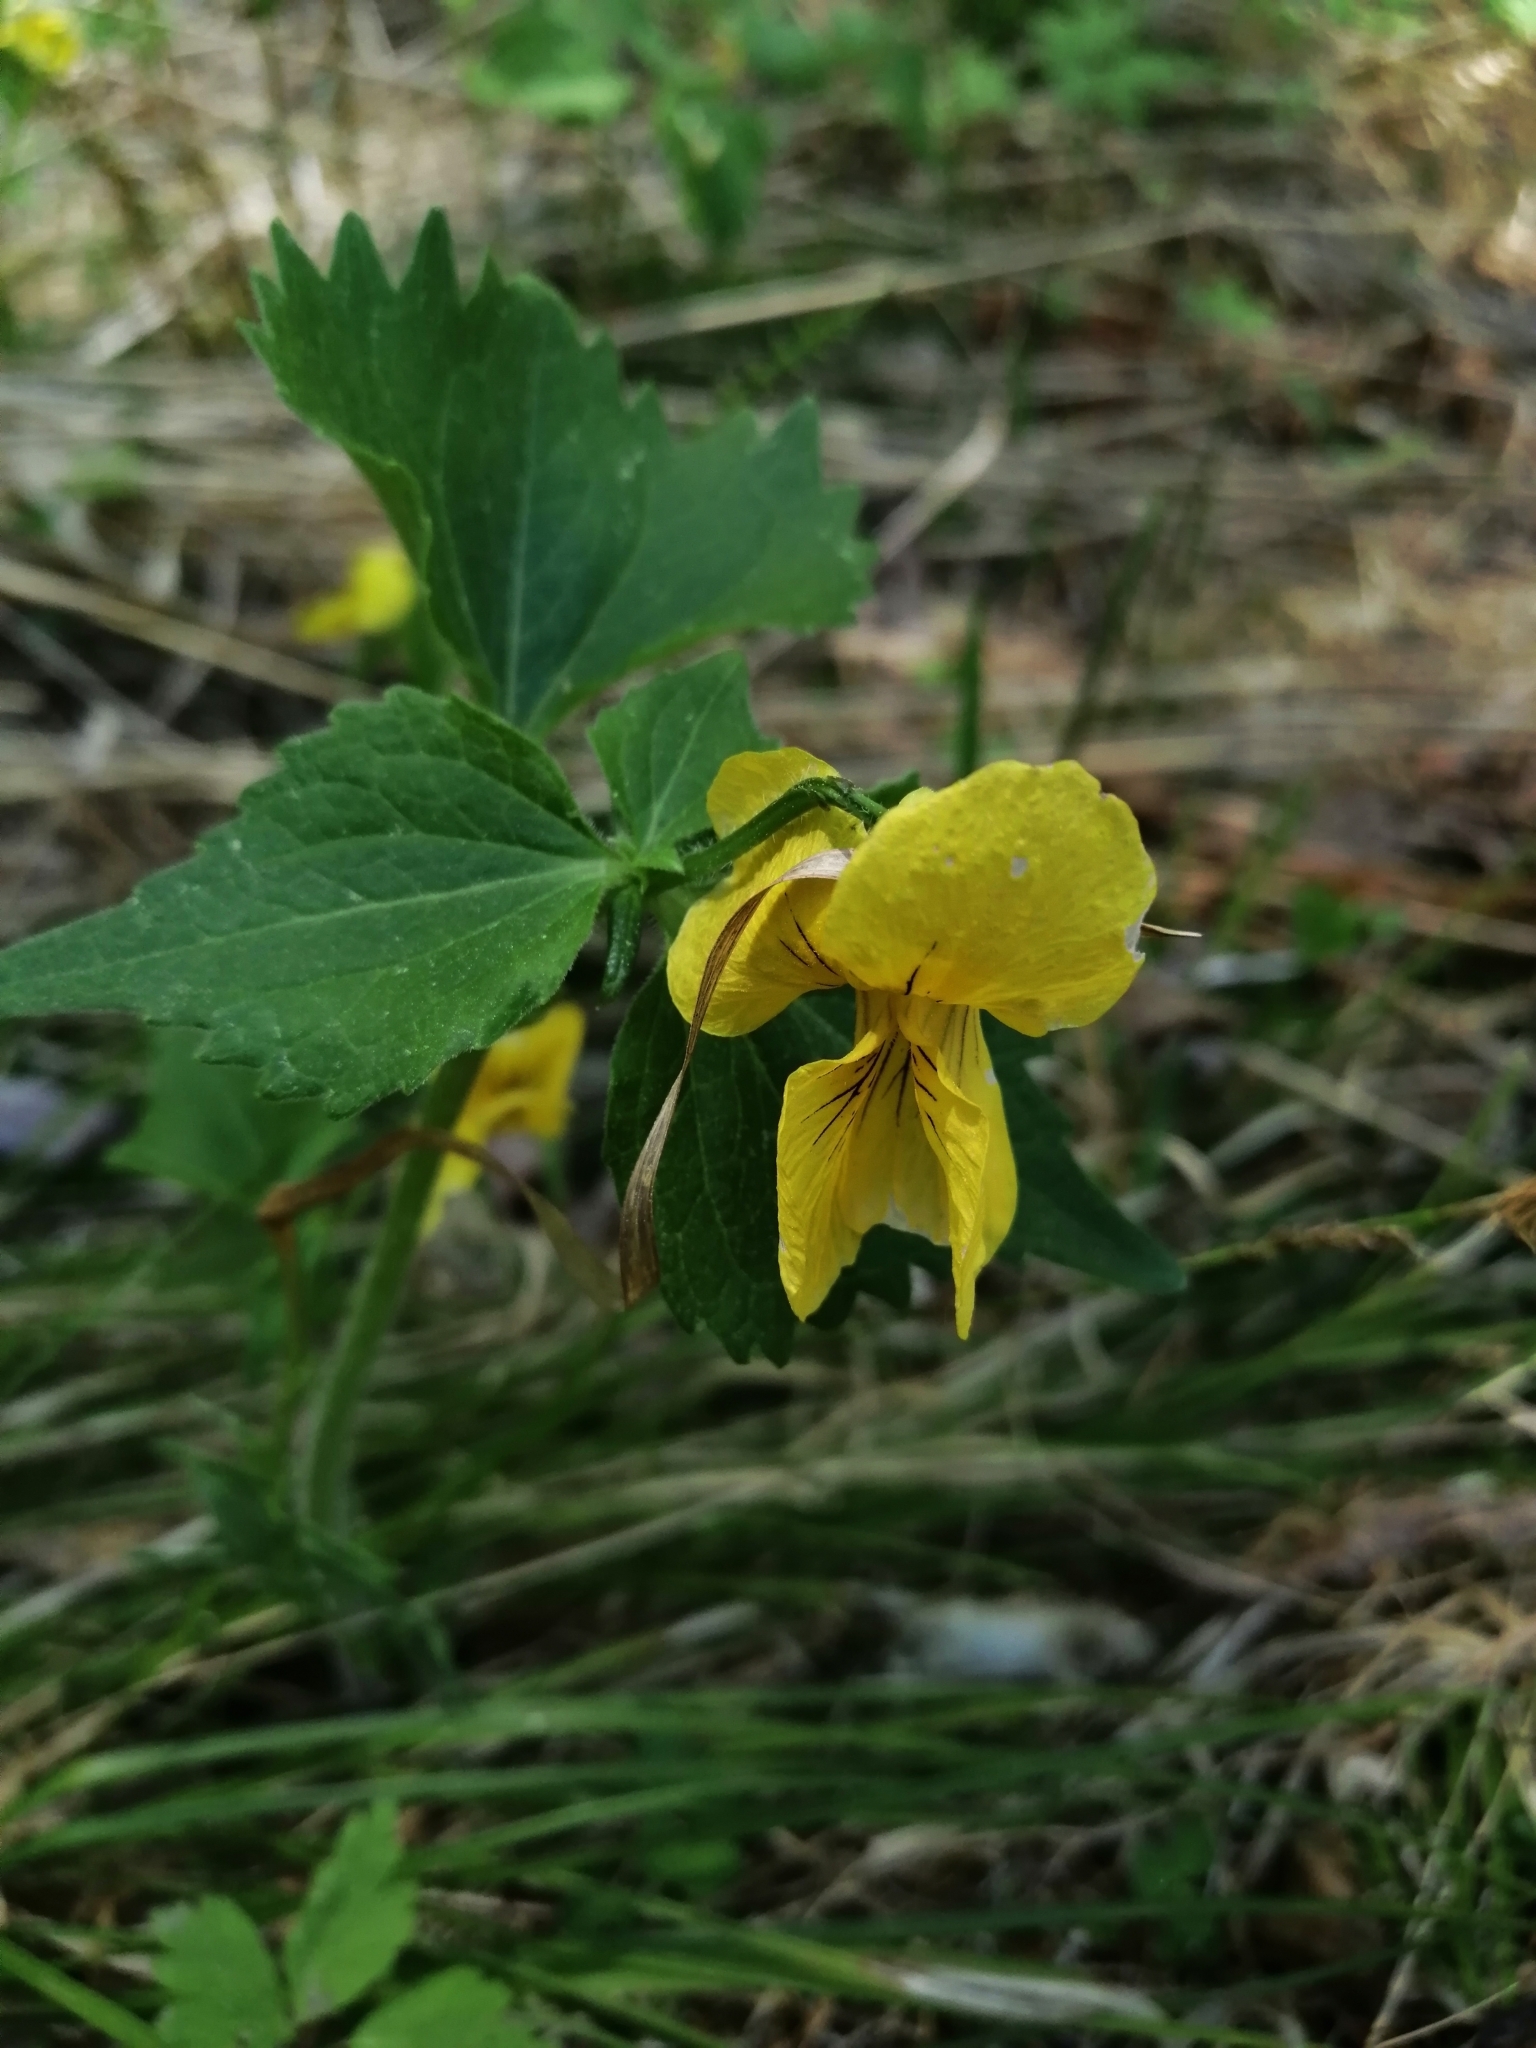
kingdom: Plantae
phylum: Tracheophyta
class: Magnoliopsida
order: Malpighiales
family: Violaceae
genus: Viola
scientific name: Viola uniflora
